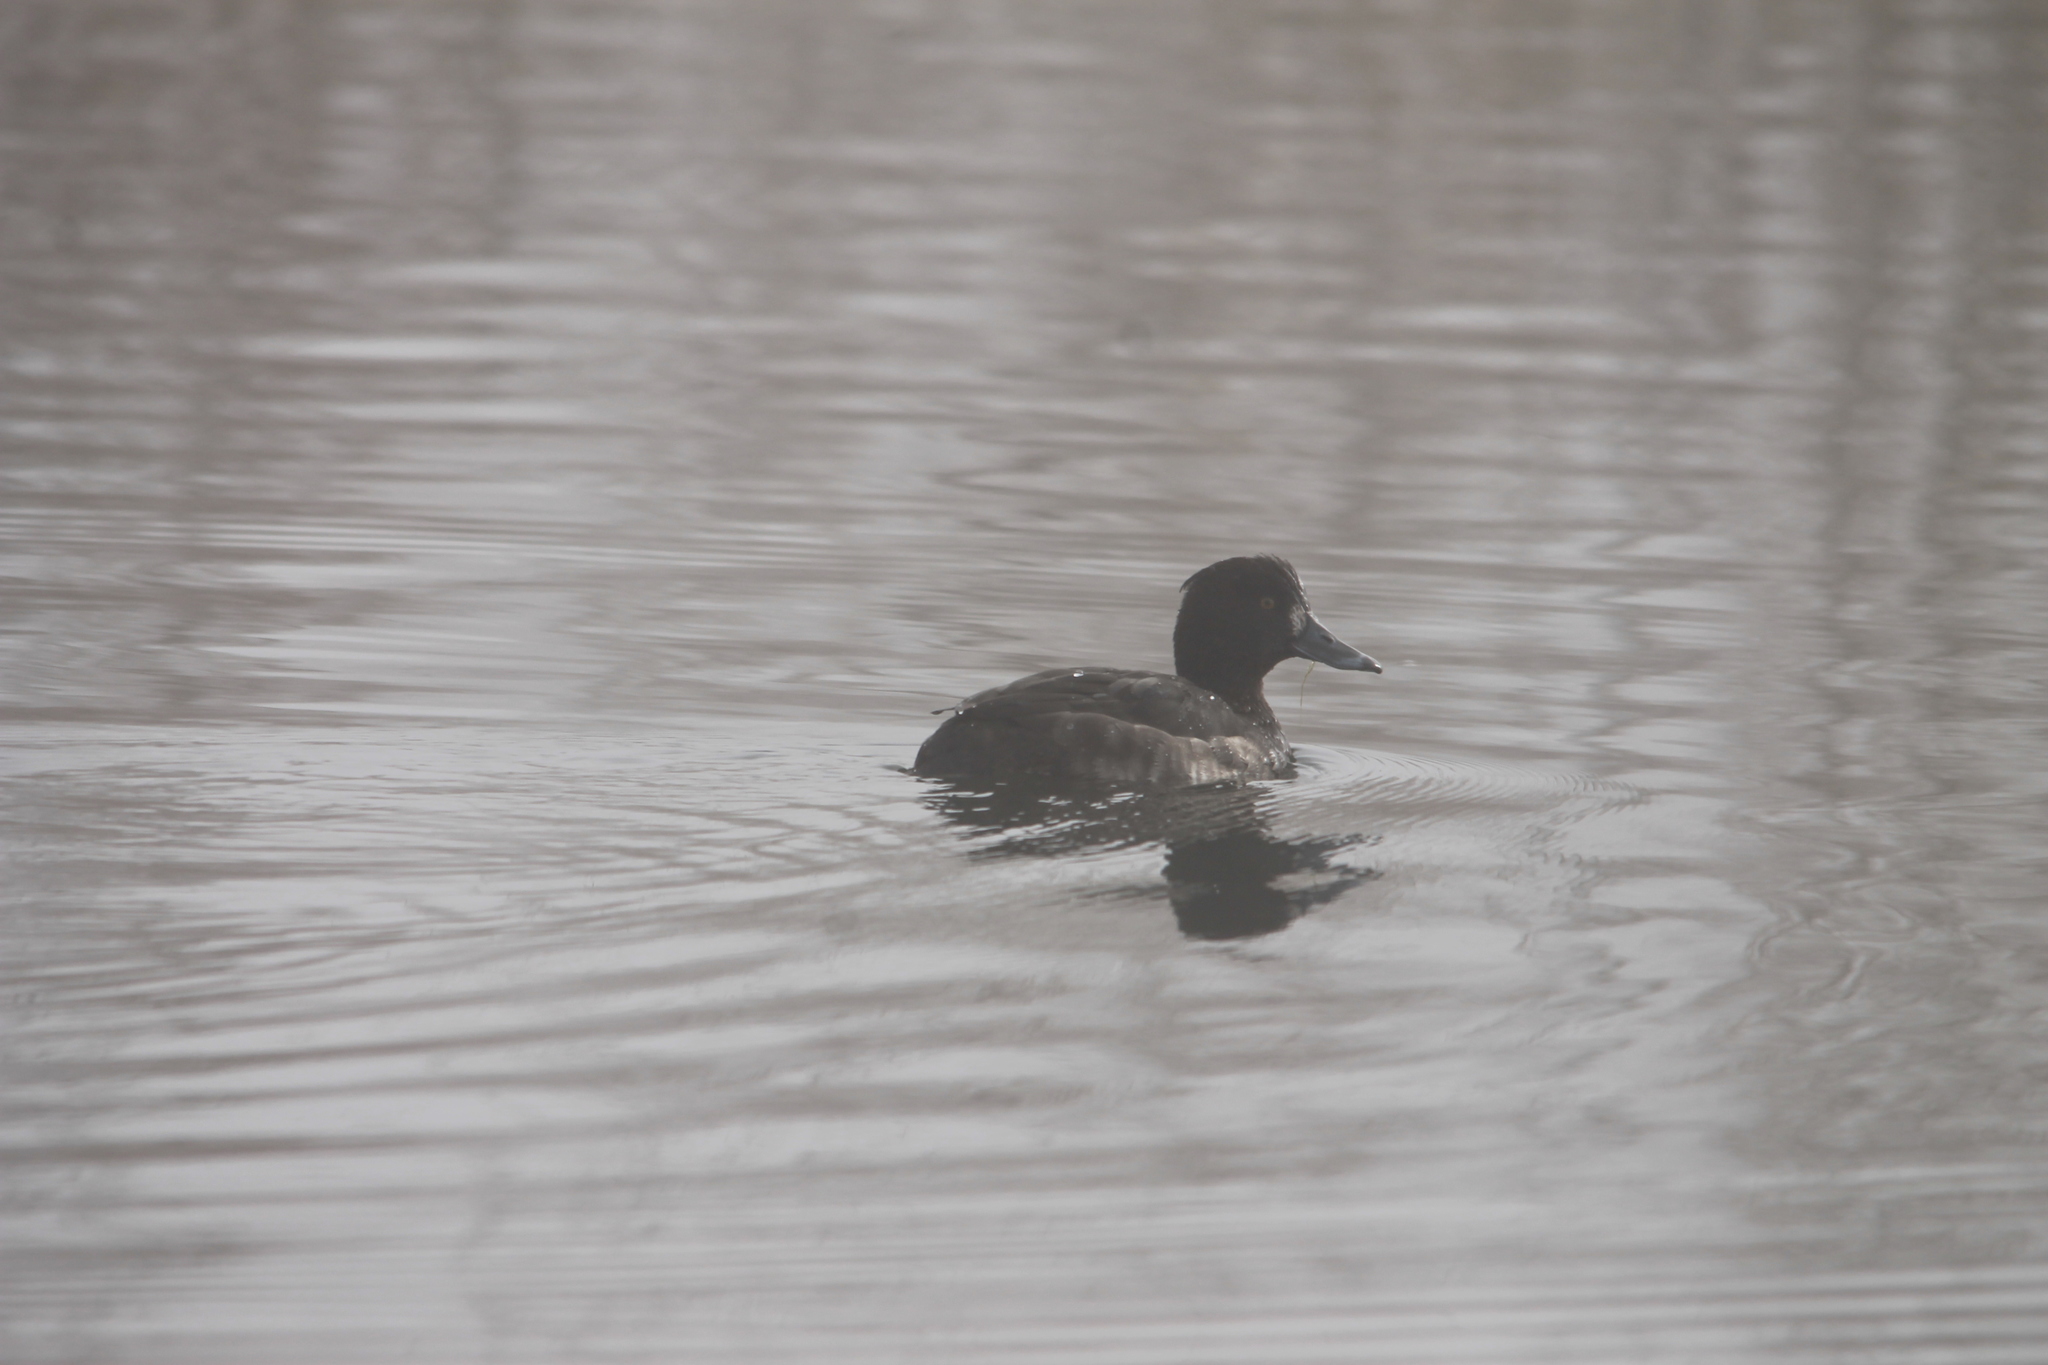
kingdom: Animalia
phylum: Chordata
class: Aves
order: Anseriformes
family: Anatidae
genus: Aythya
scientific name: Aythya fuligula
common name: Tufted duck
